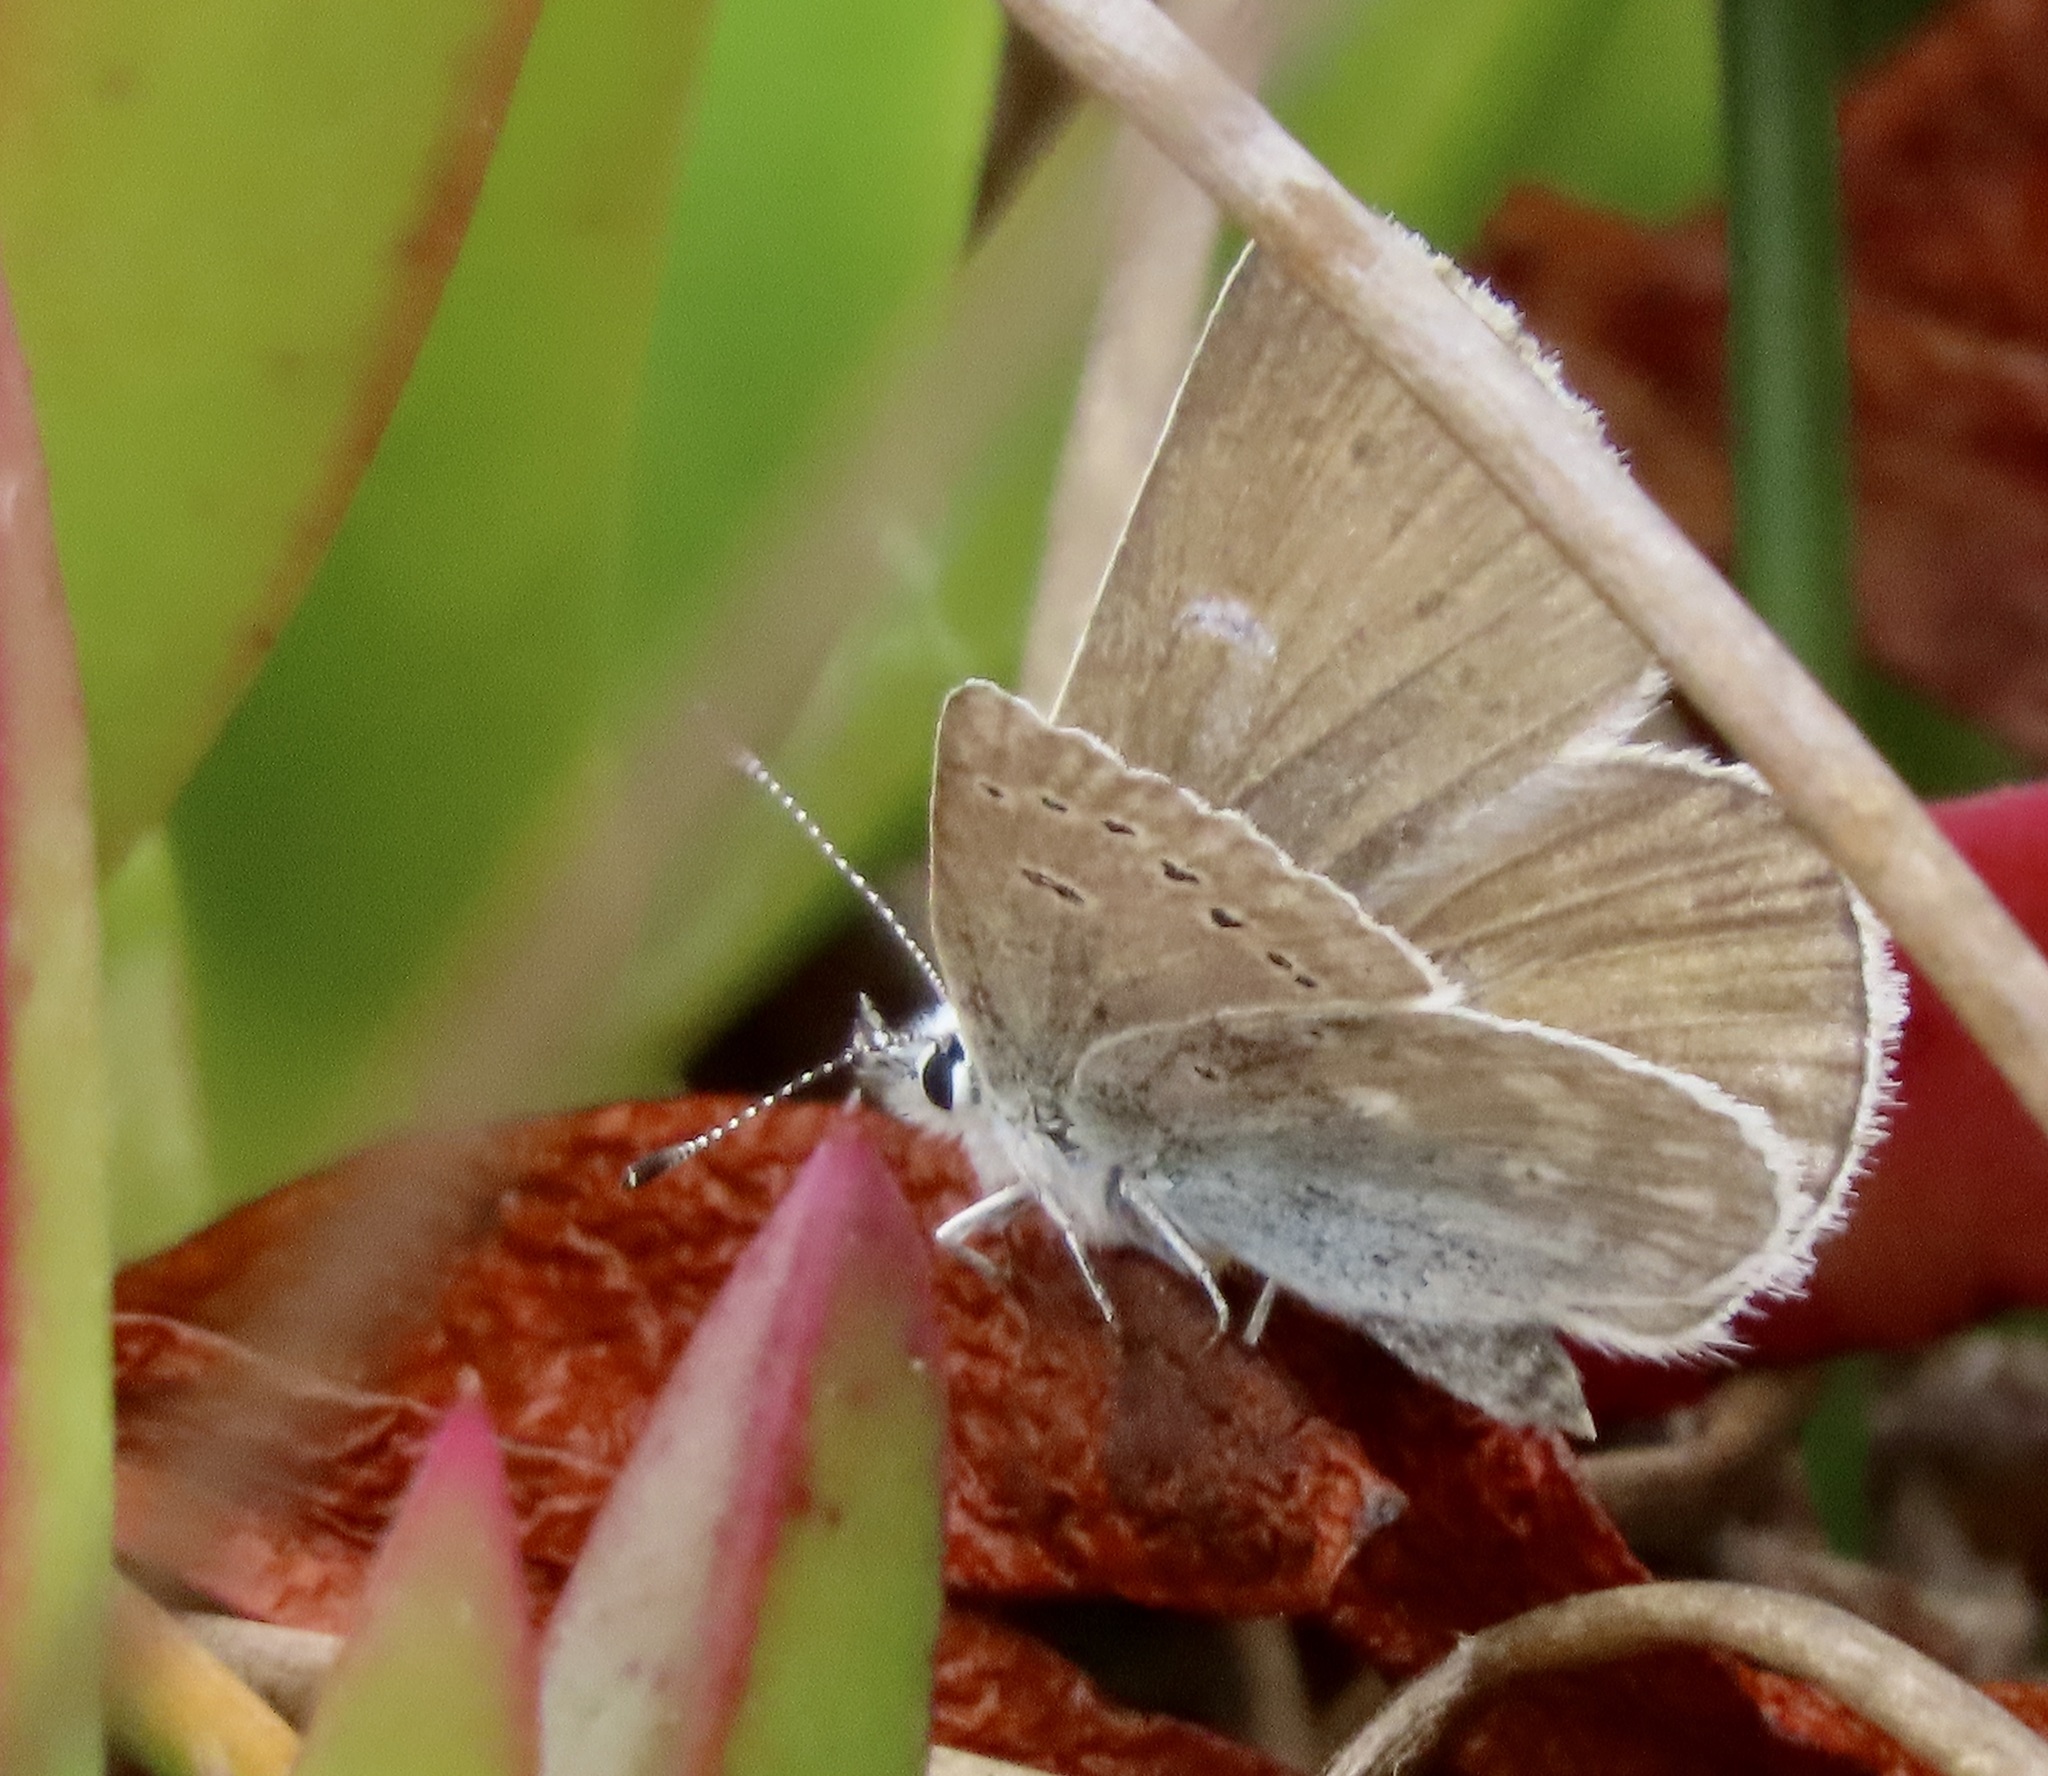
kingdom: Animalia
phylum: Arthropoda
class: Insecta
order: Lepidoptera
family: Lycaenidae
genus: Icaricia
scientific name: Icaricia icarioides
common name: Boisduval's blue
